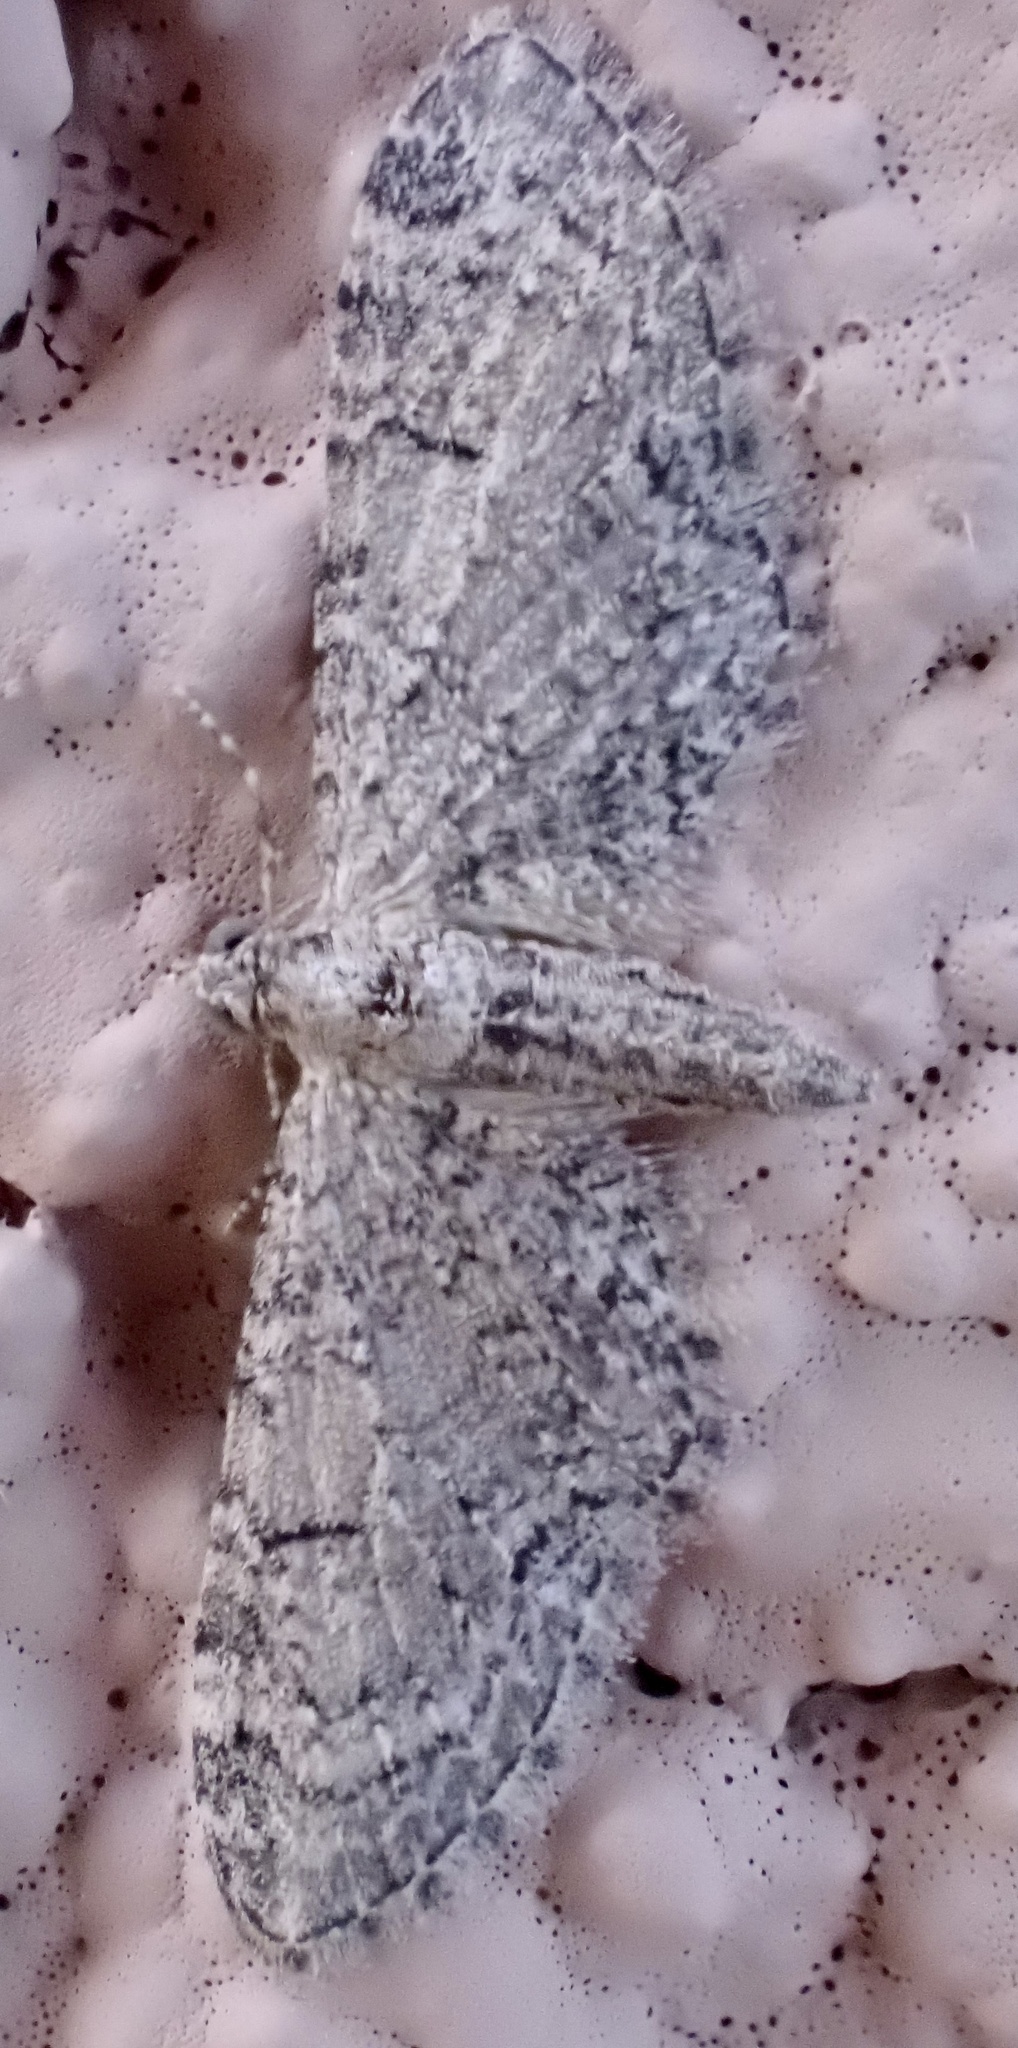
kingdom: Animalia
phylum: Arthropoda
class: Insecta
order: Lepidoptera
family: Geometridae
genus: Eupithecia
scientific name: Eupithecia ultimaria
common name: Channel islands pug
